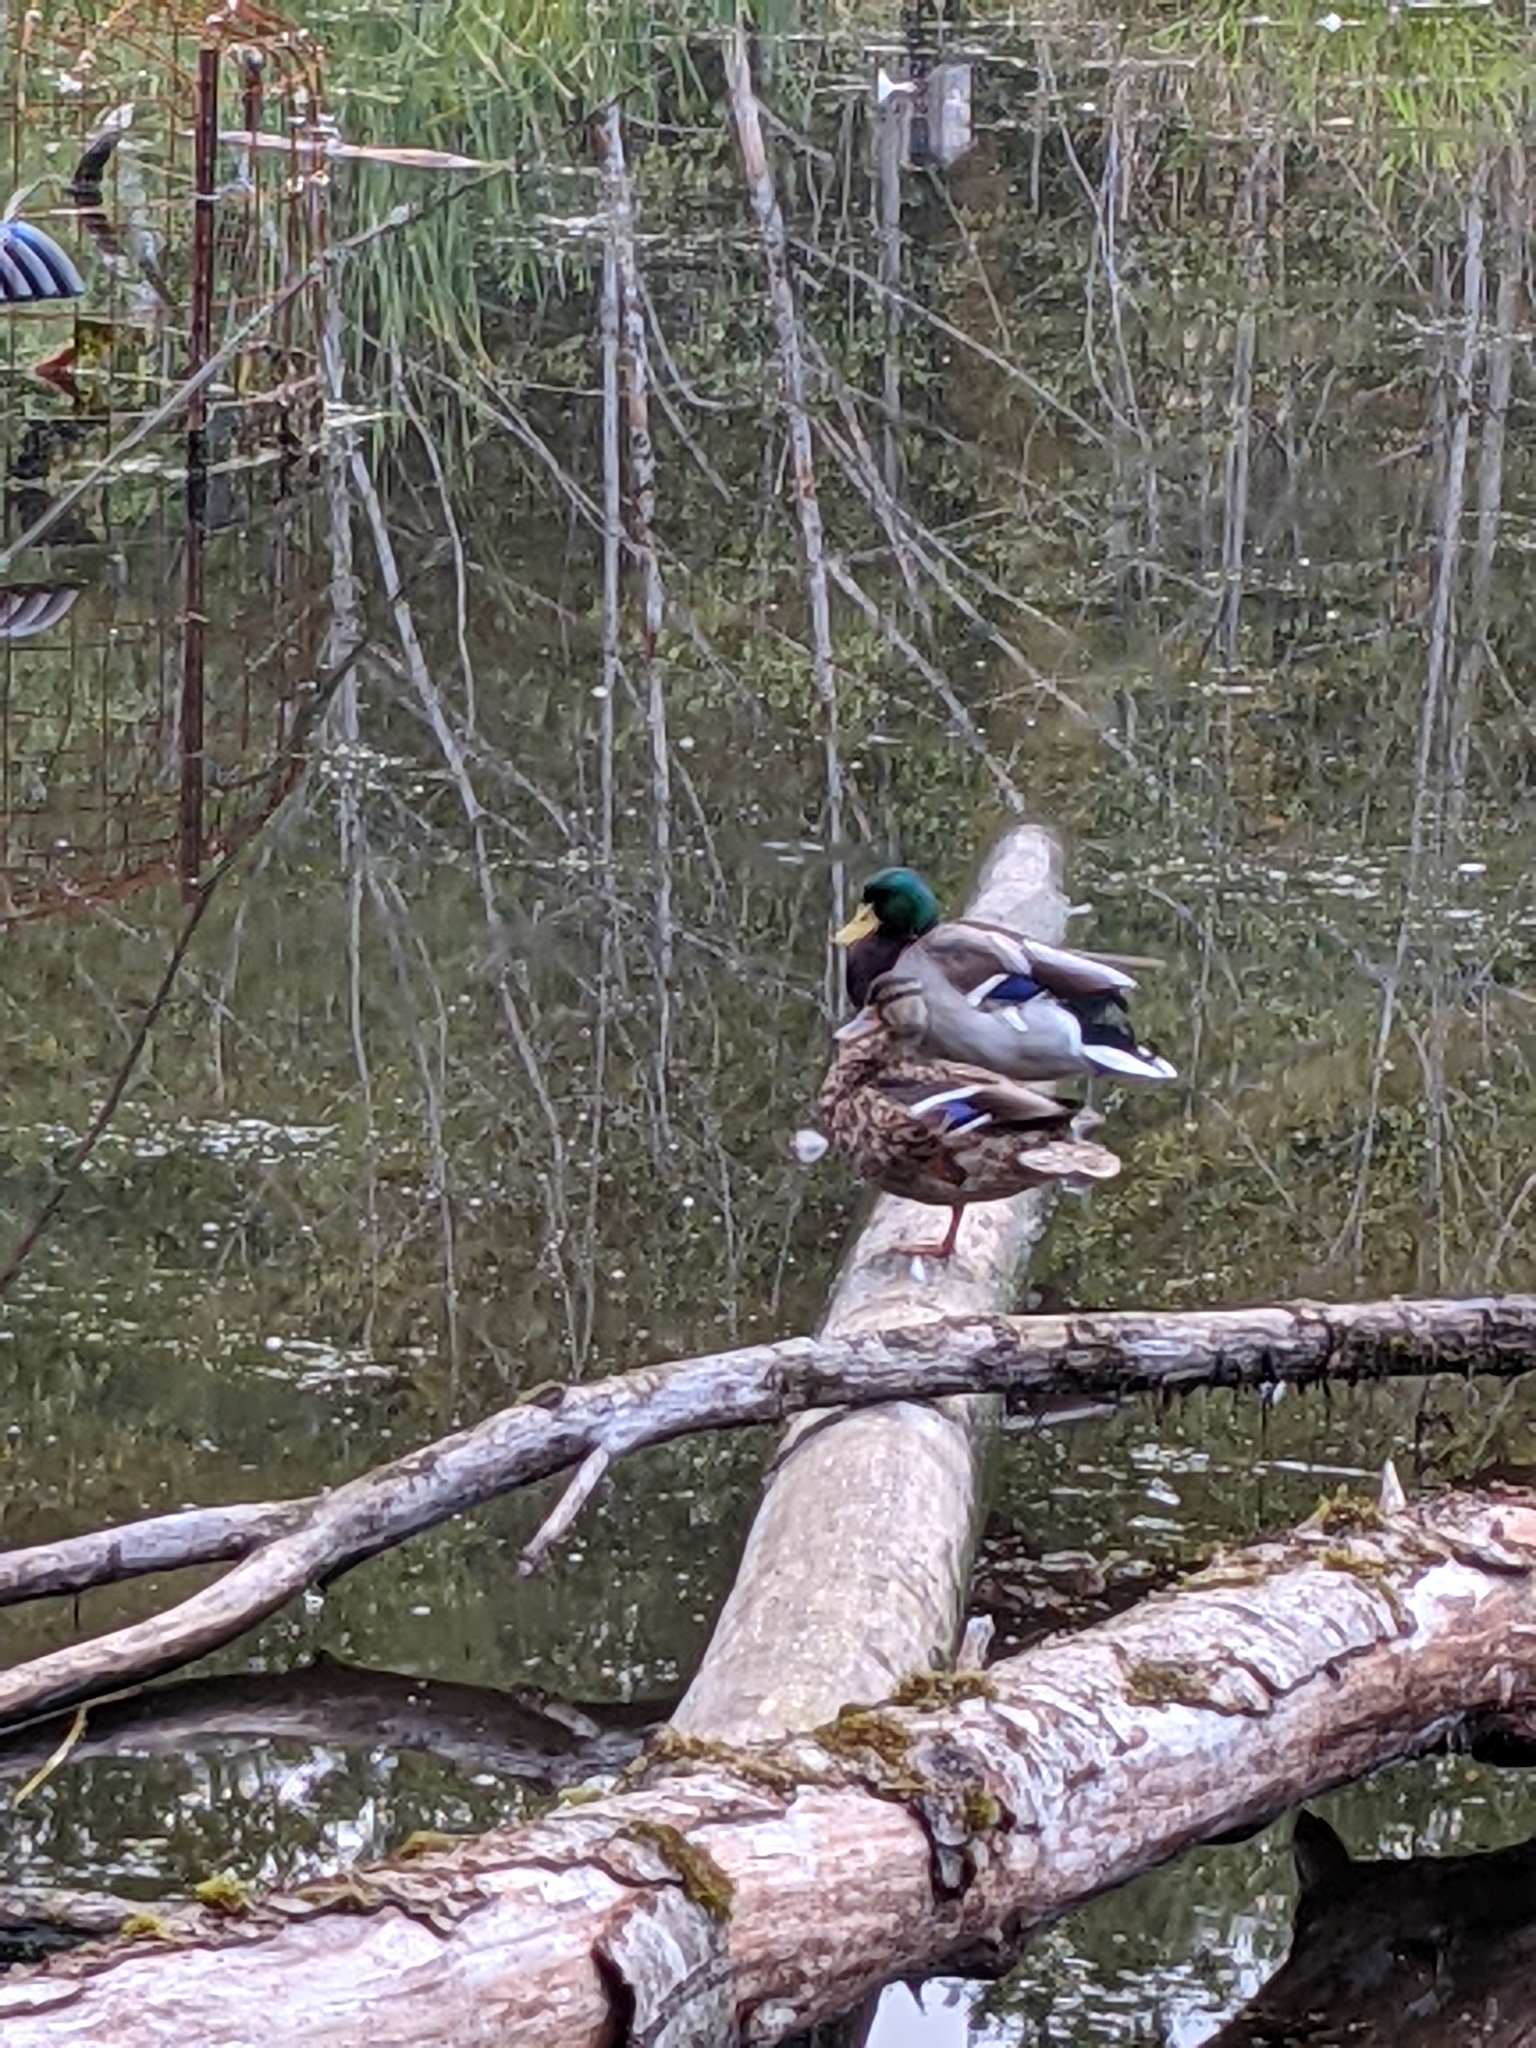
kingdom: Animalia
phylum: Chordata
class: Aves
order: Anseriformes
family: Anatidae
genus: Anas
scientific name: Anas platyrhynchos
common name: Mallard
